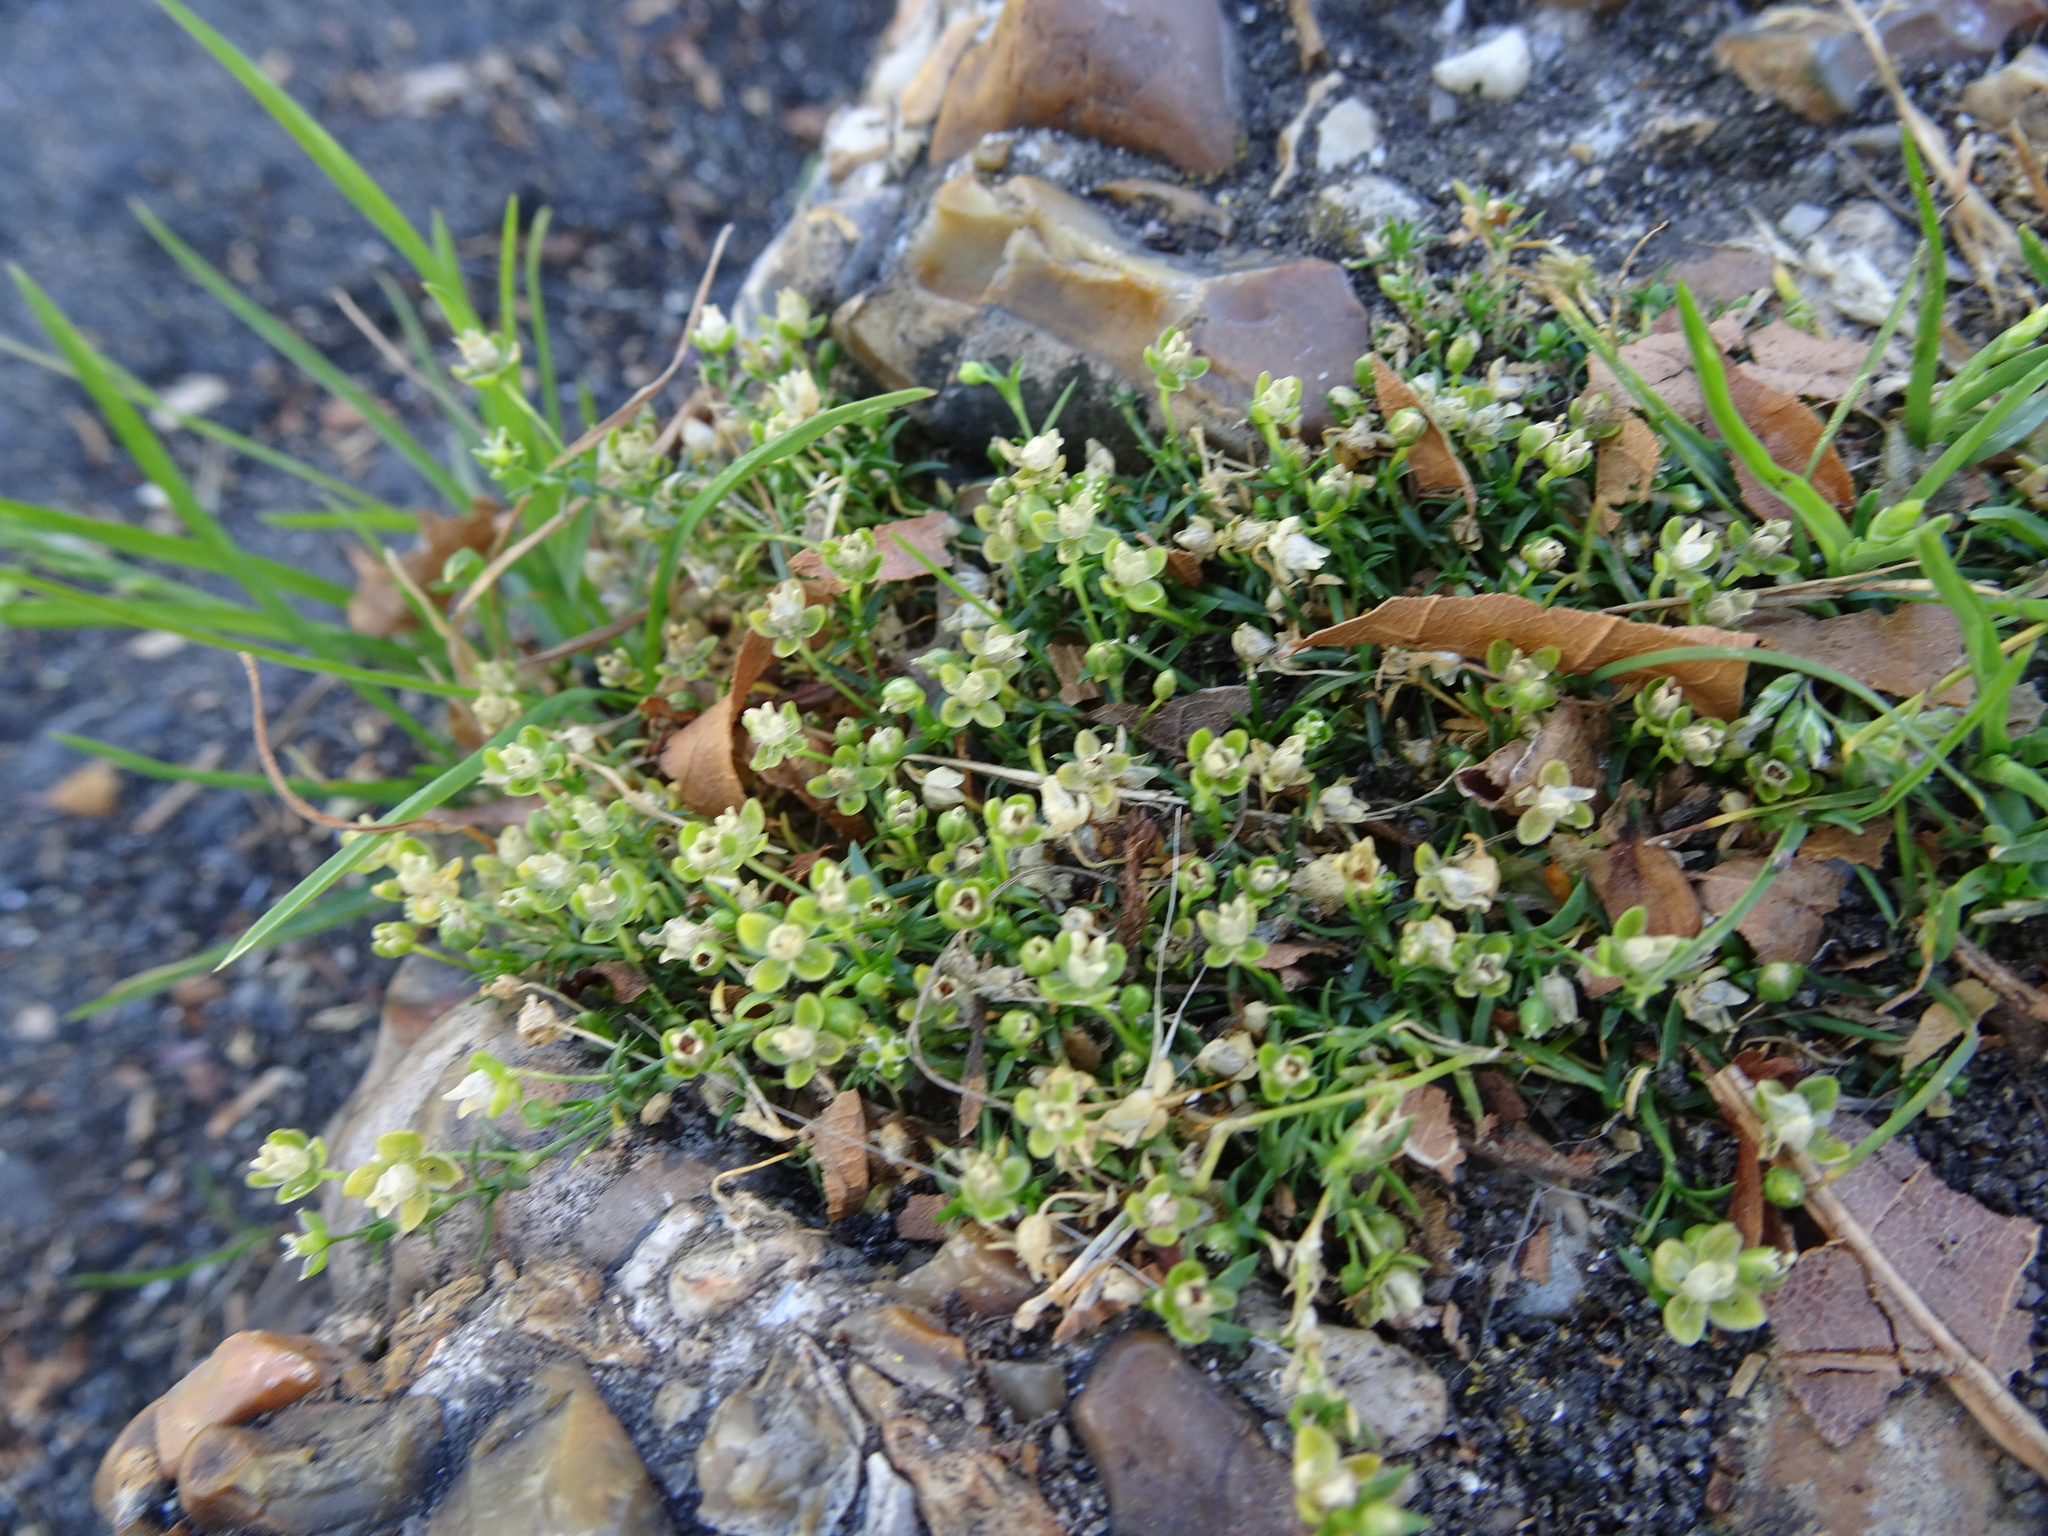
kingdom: Plantae
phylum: Tracheophyta
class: Magnoliopsida
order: Caryophyllales
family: Caryophyllaceae
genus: Sagina
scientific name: Sagina procumbens
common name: Procumbent pearlwort
